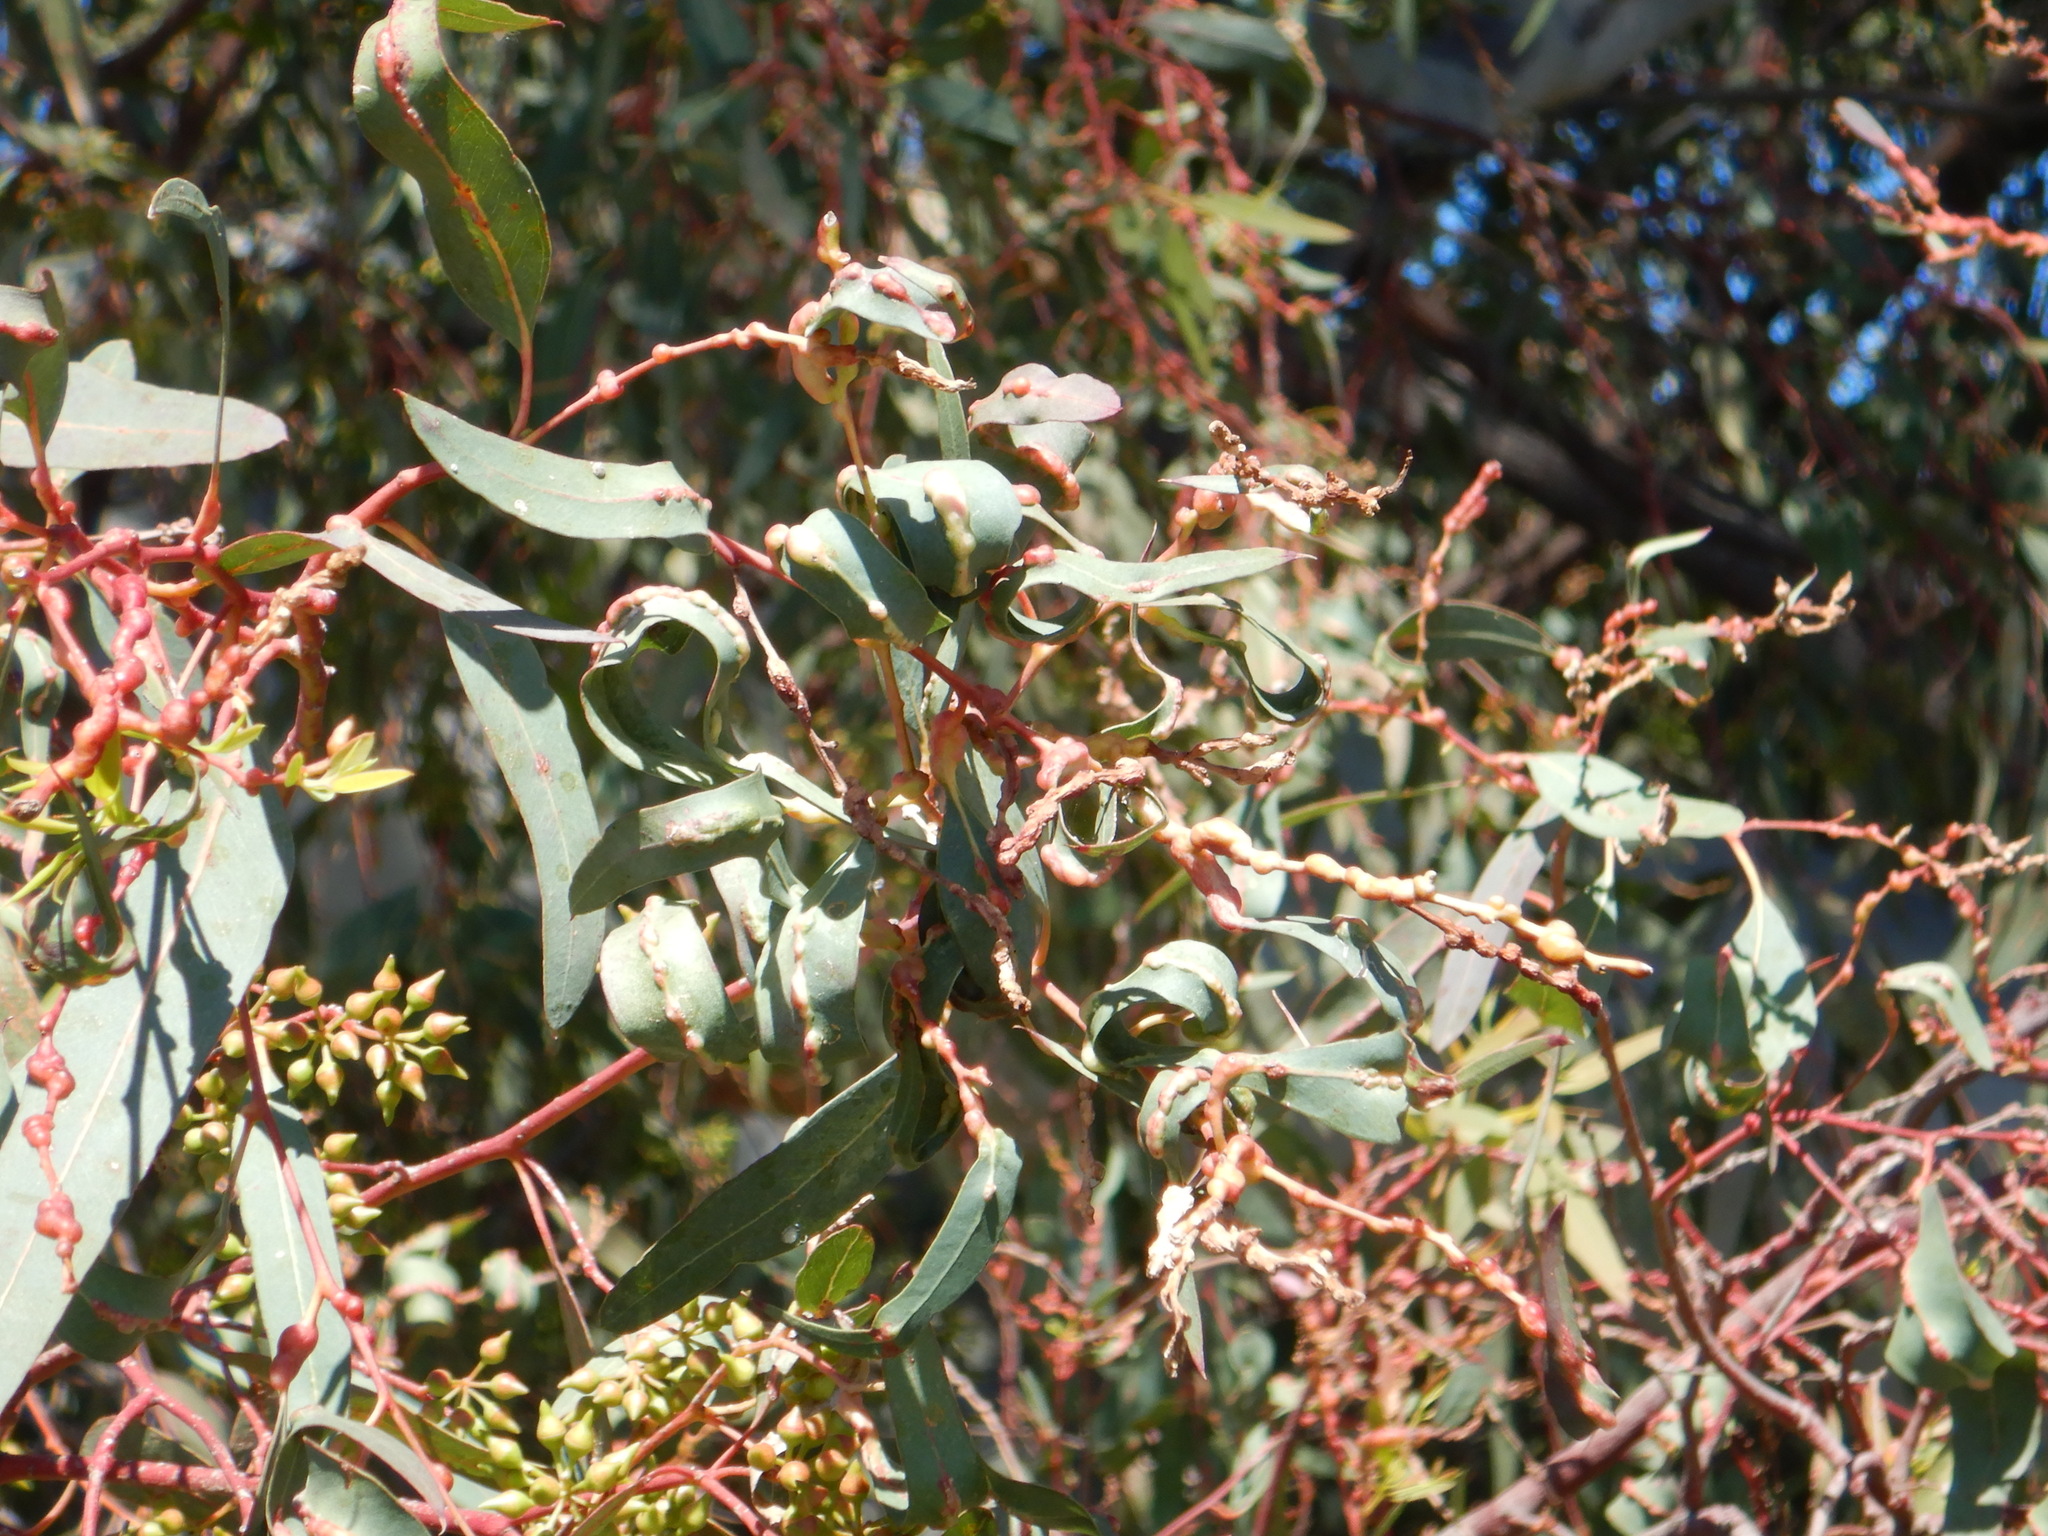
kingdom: Animalia
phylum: Arthropoda
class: Insecta
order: Hymenoptera
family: Eulophidae
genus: Leptocybe
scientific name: Leptocybe invasa
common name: Gall wasp
